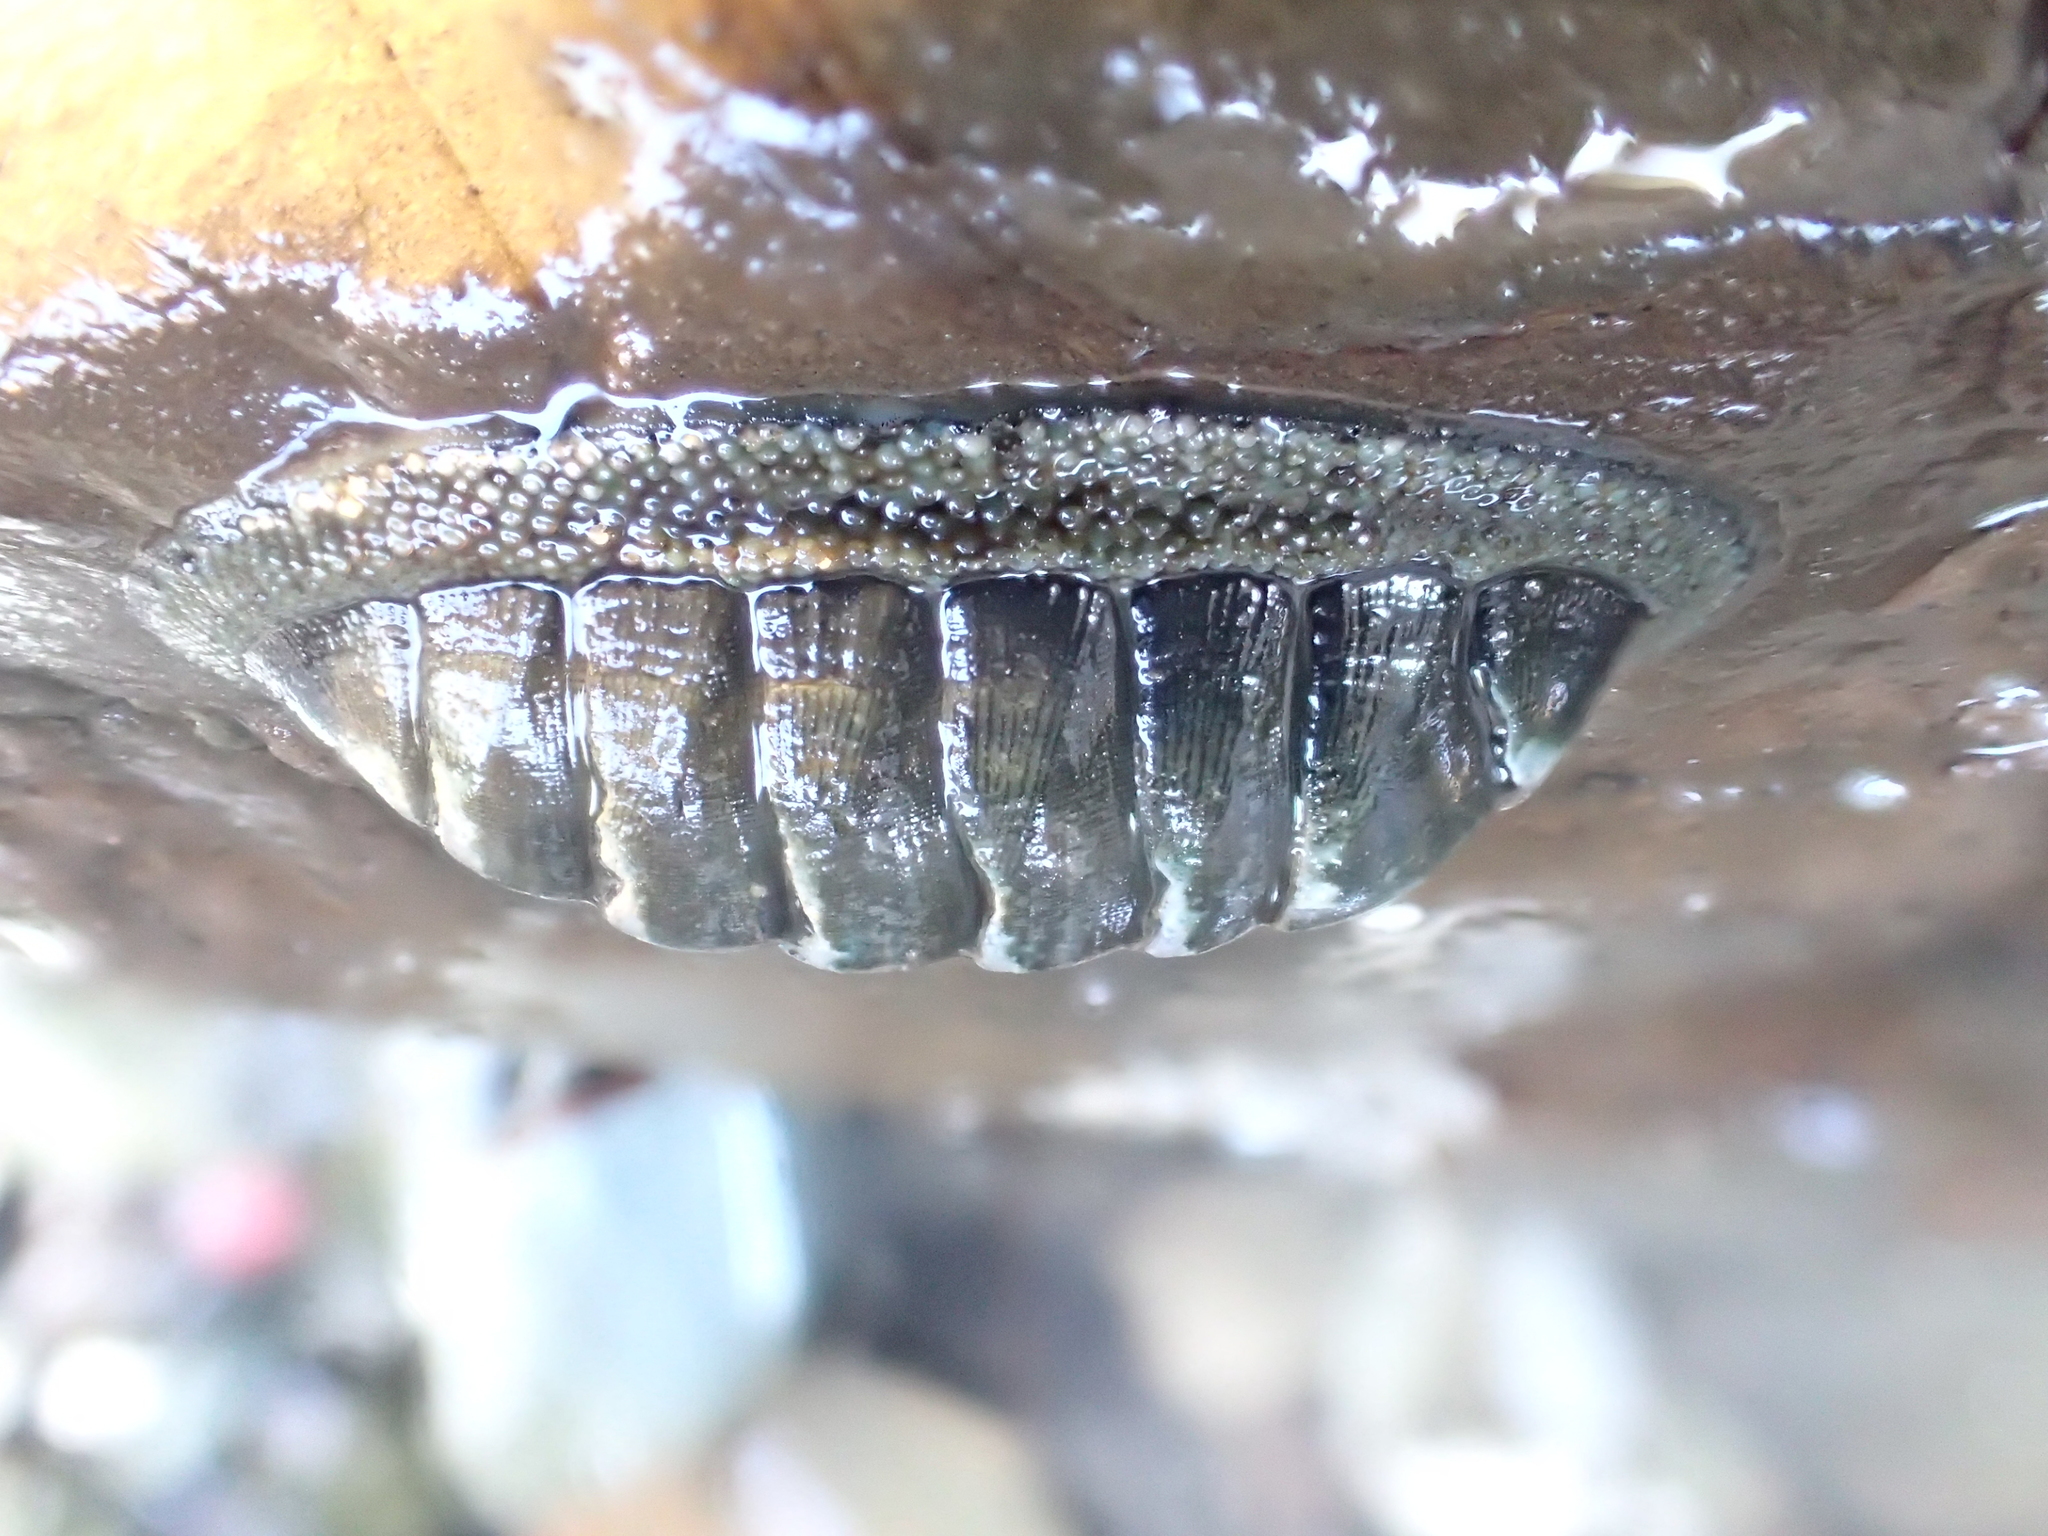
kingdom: Animalia
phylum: Mollusca
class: Polyplacophora
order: Chitonida
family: Chitonidae
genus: Chiton
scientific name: Chiton glaucus
